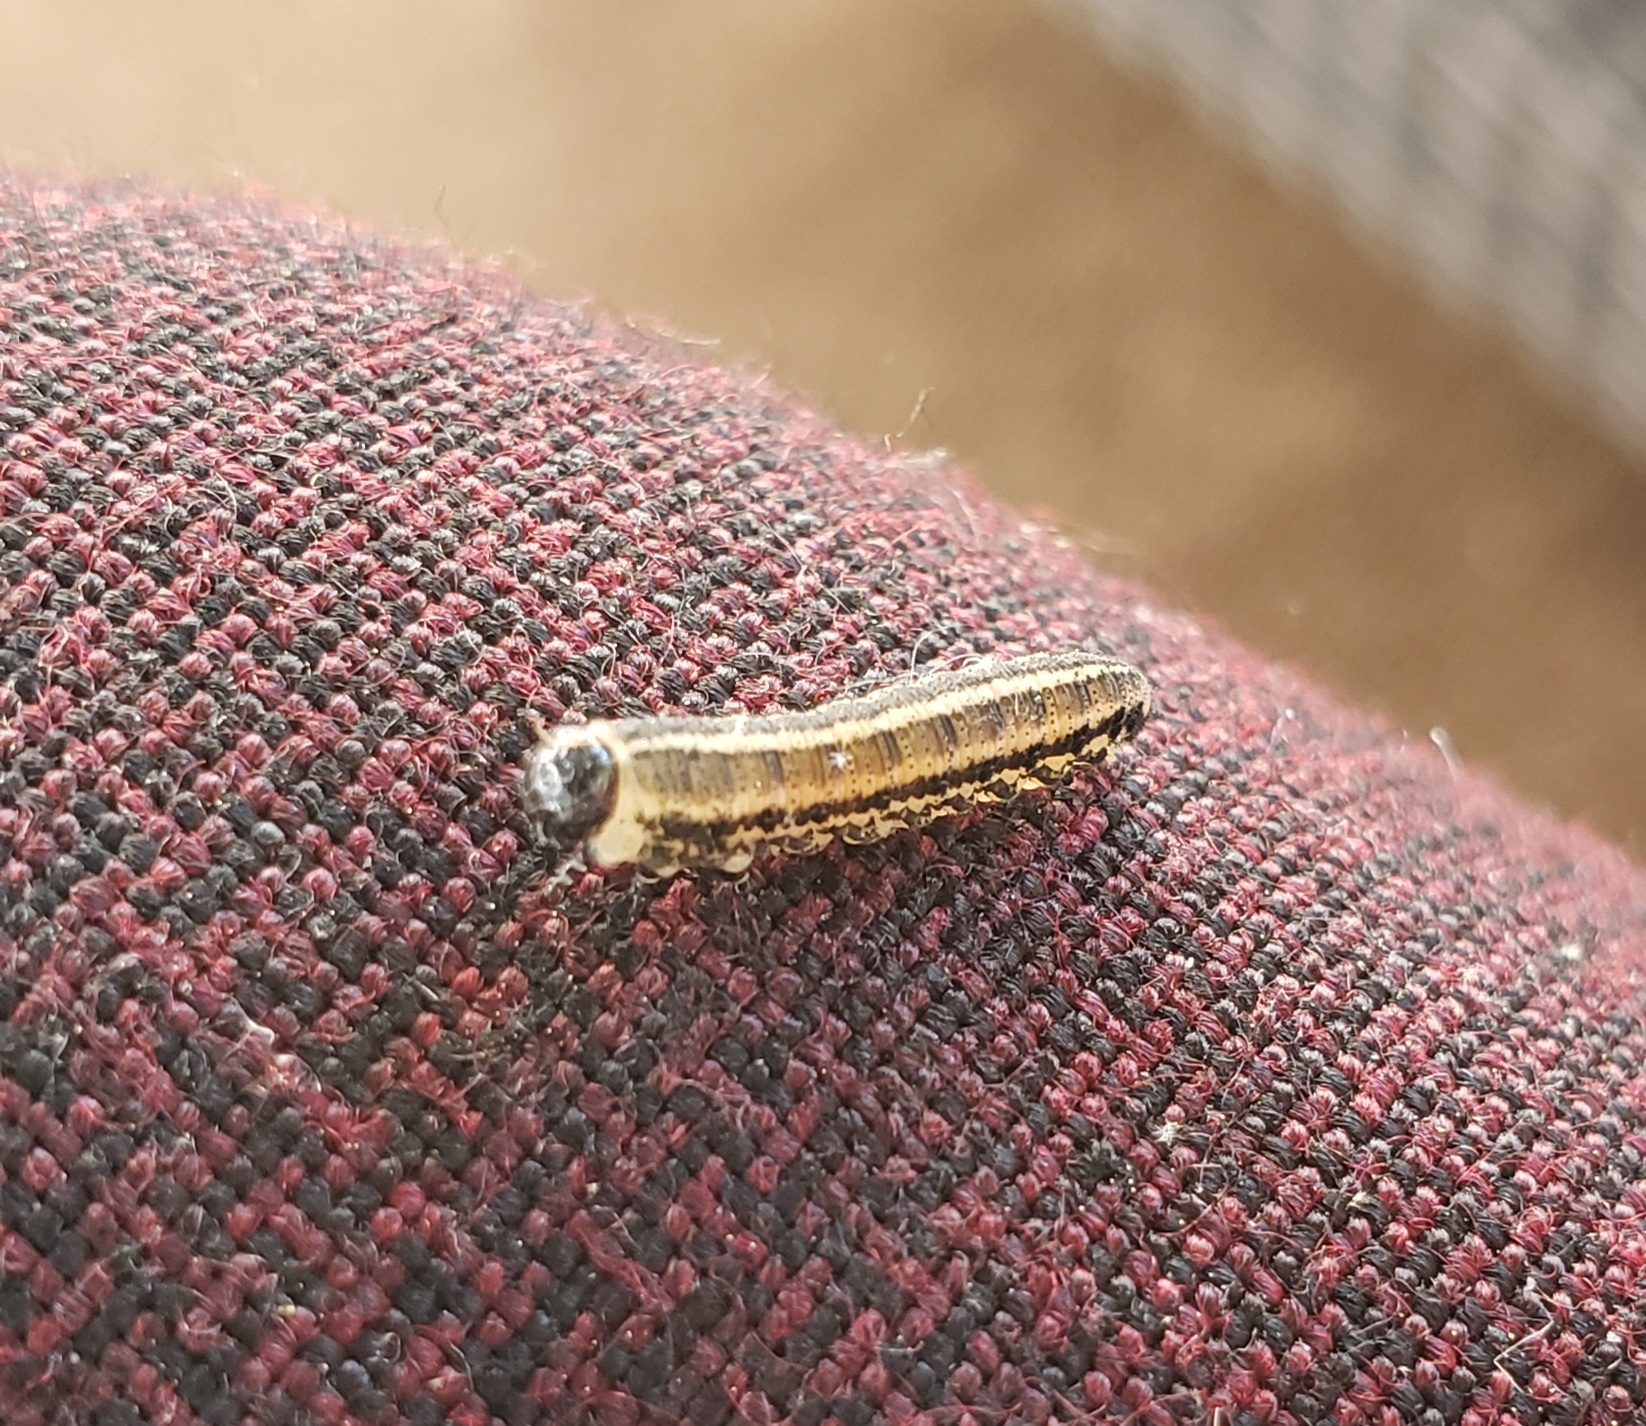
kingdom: Animalia
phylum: Arthropoda
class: Insecta
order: Hymenoptera
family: Diprionidae
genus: Neodiprion
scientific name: Neodiprion sertifer
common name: European pine sawfly
